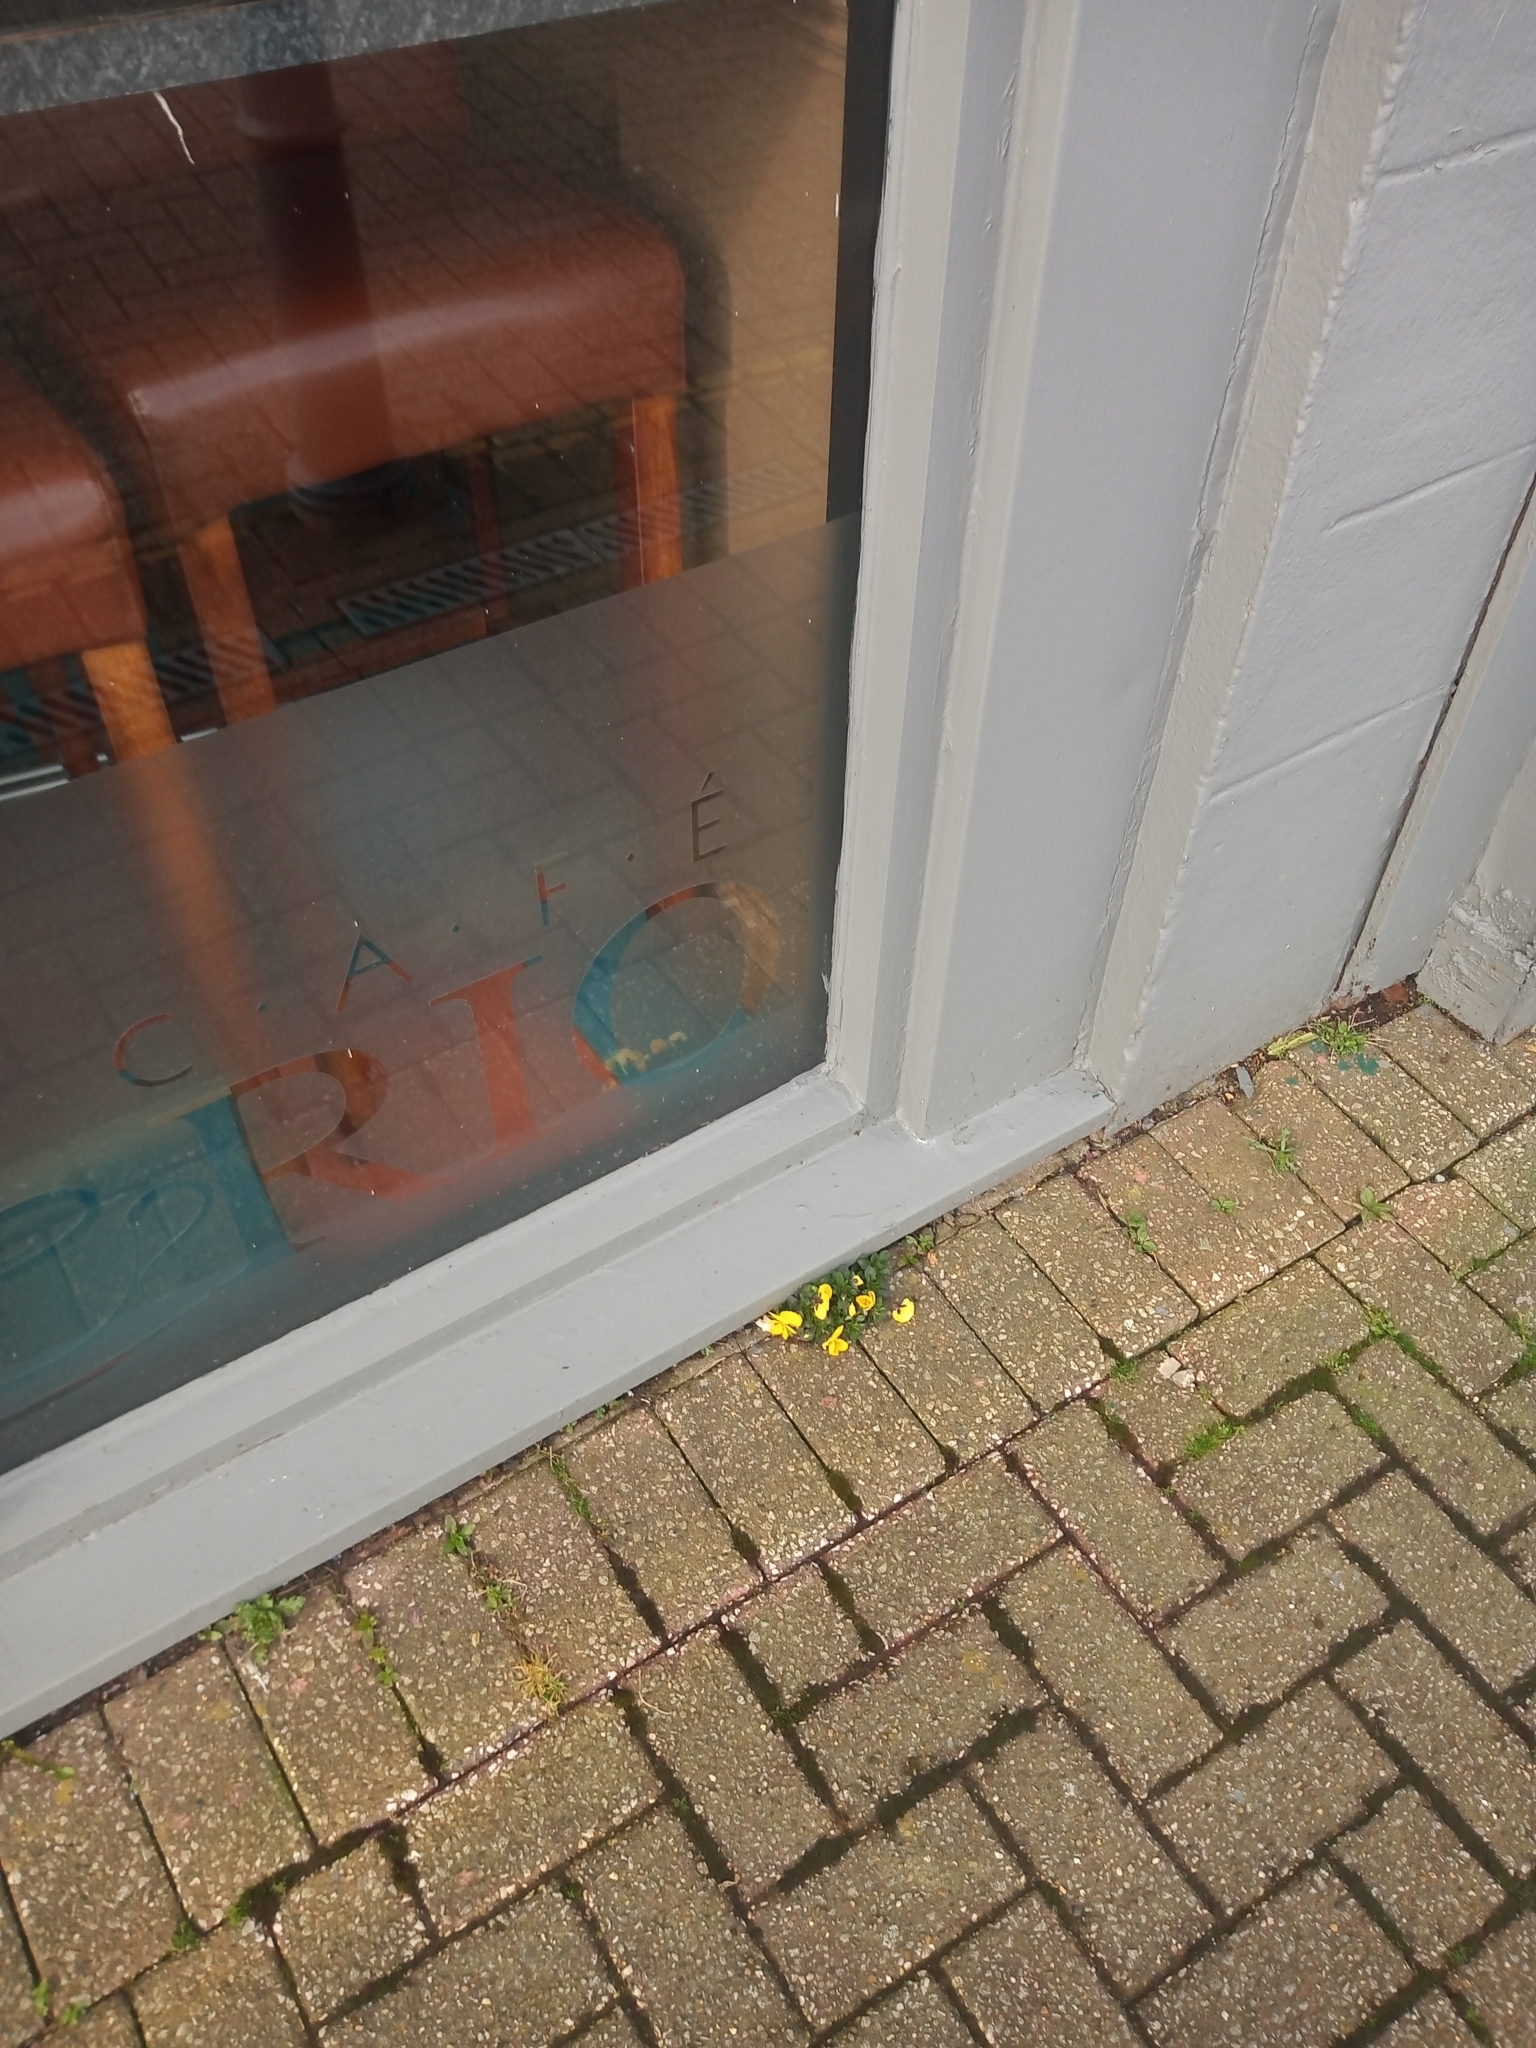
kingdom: Plantae
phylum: Tracheophyta
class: Magnoliopsida
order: Malpighiales
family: Violaceae
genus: Viola
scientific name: Viola wittrockiana
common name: Garden pansy
